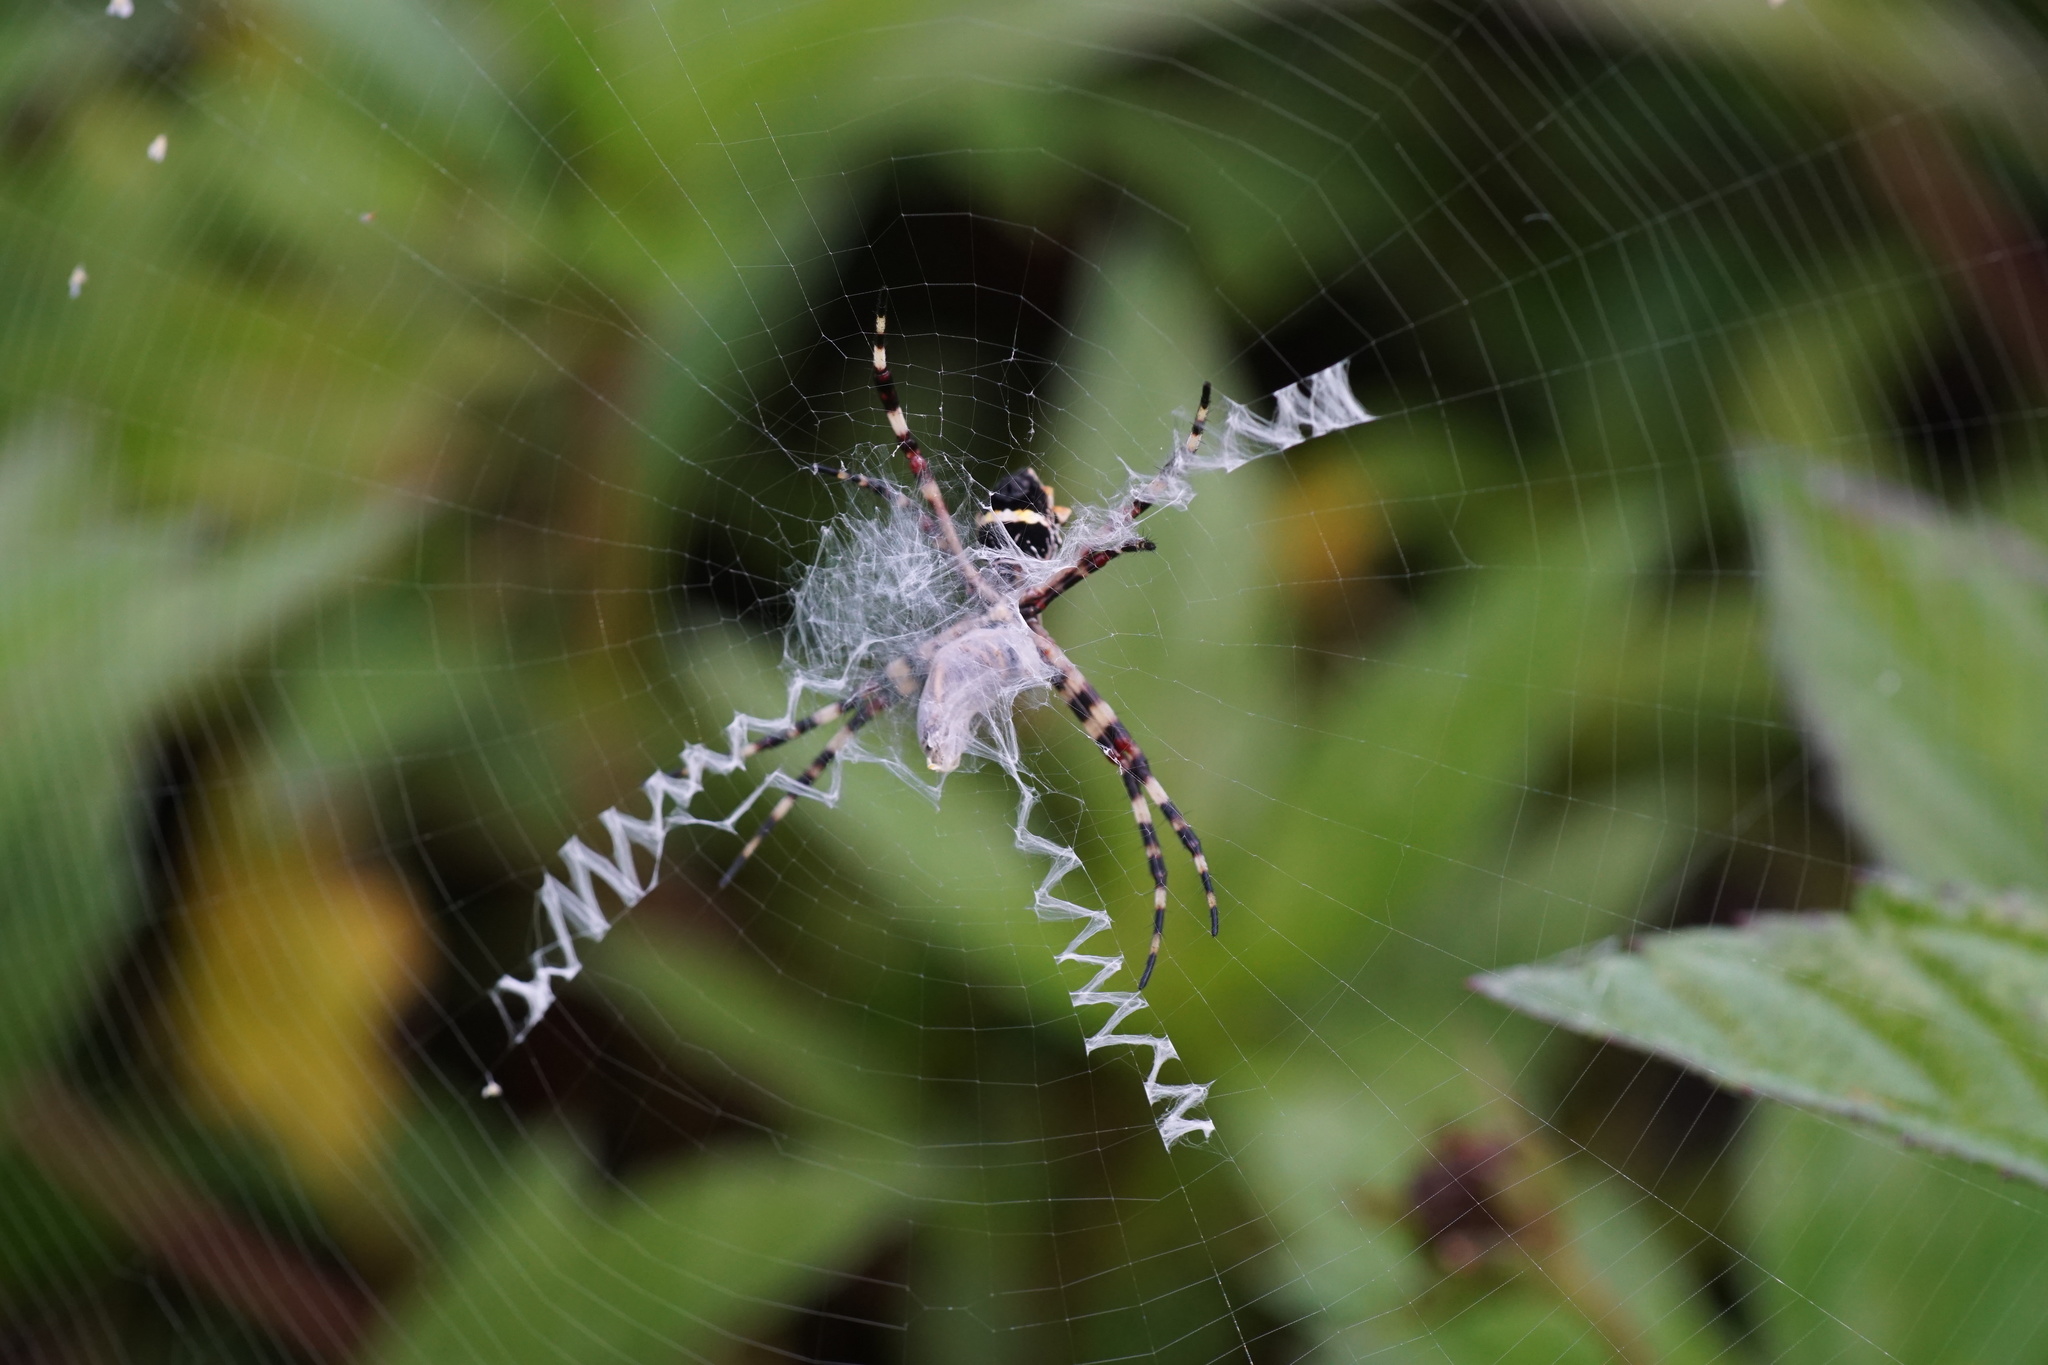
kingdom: Animalia
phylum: Arthropoda
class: Arachnida
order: Araneae
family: Araneidae
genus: Argiope
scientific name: Argiope argentata
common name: Orb weavers
